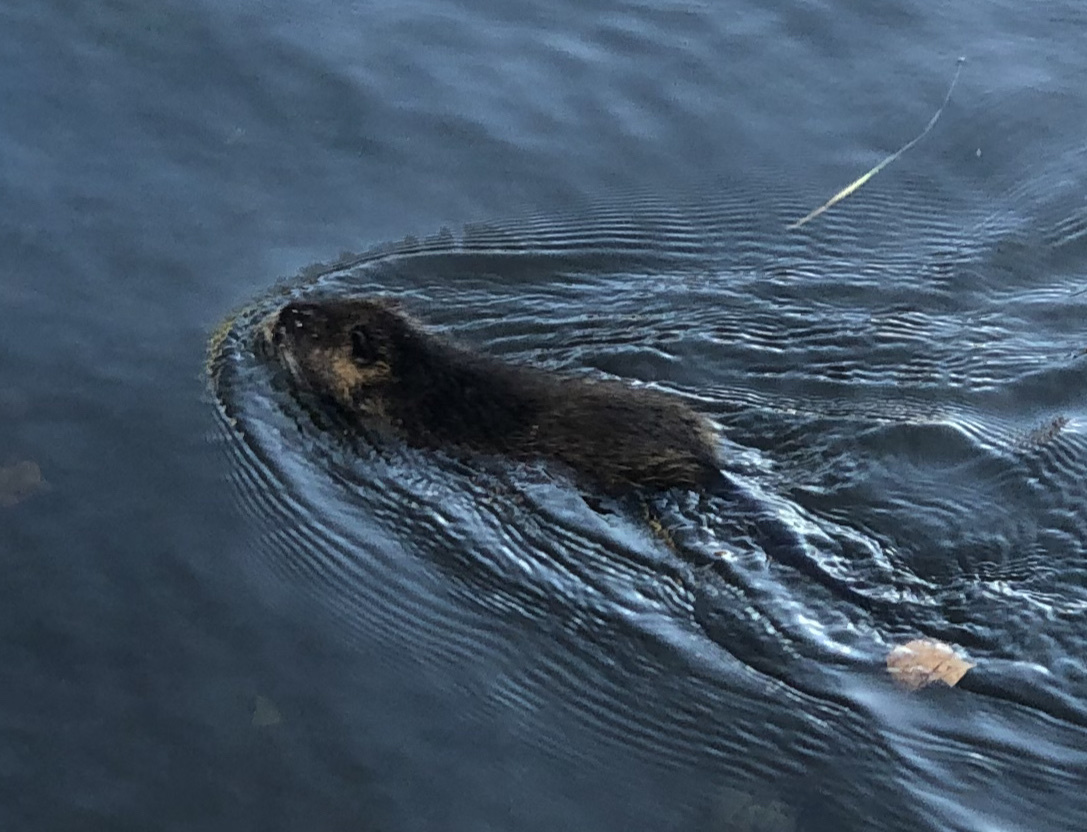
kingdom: Animalia
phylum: Chordata
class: Mammalia
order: Rodentia
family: Myocastoridae
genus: Myocastor
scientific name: Myocastor coypus
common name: Coypu
